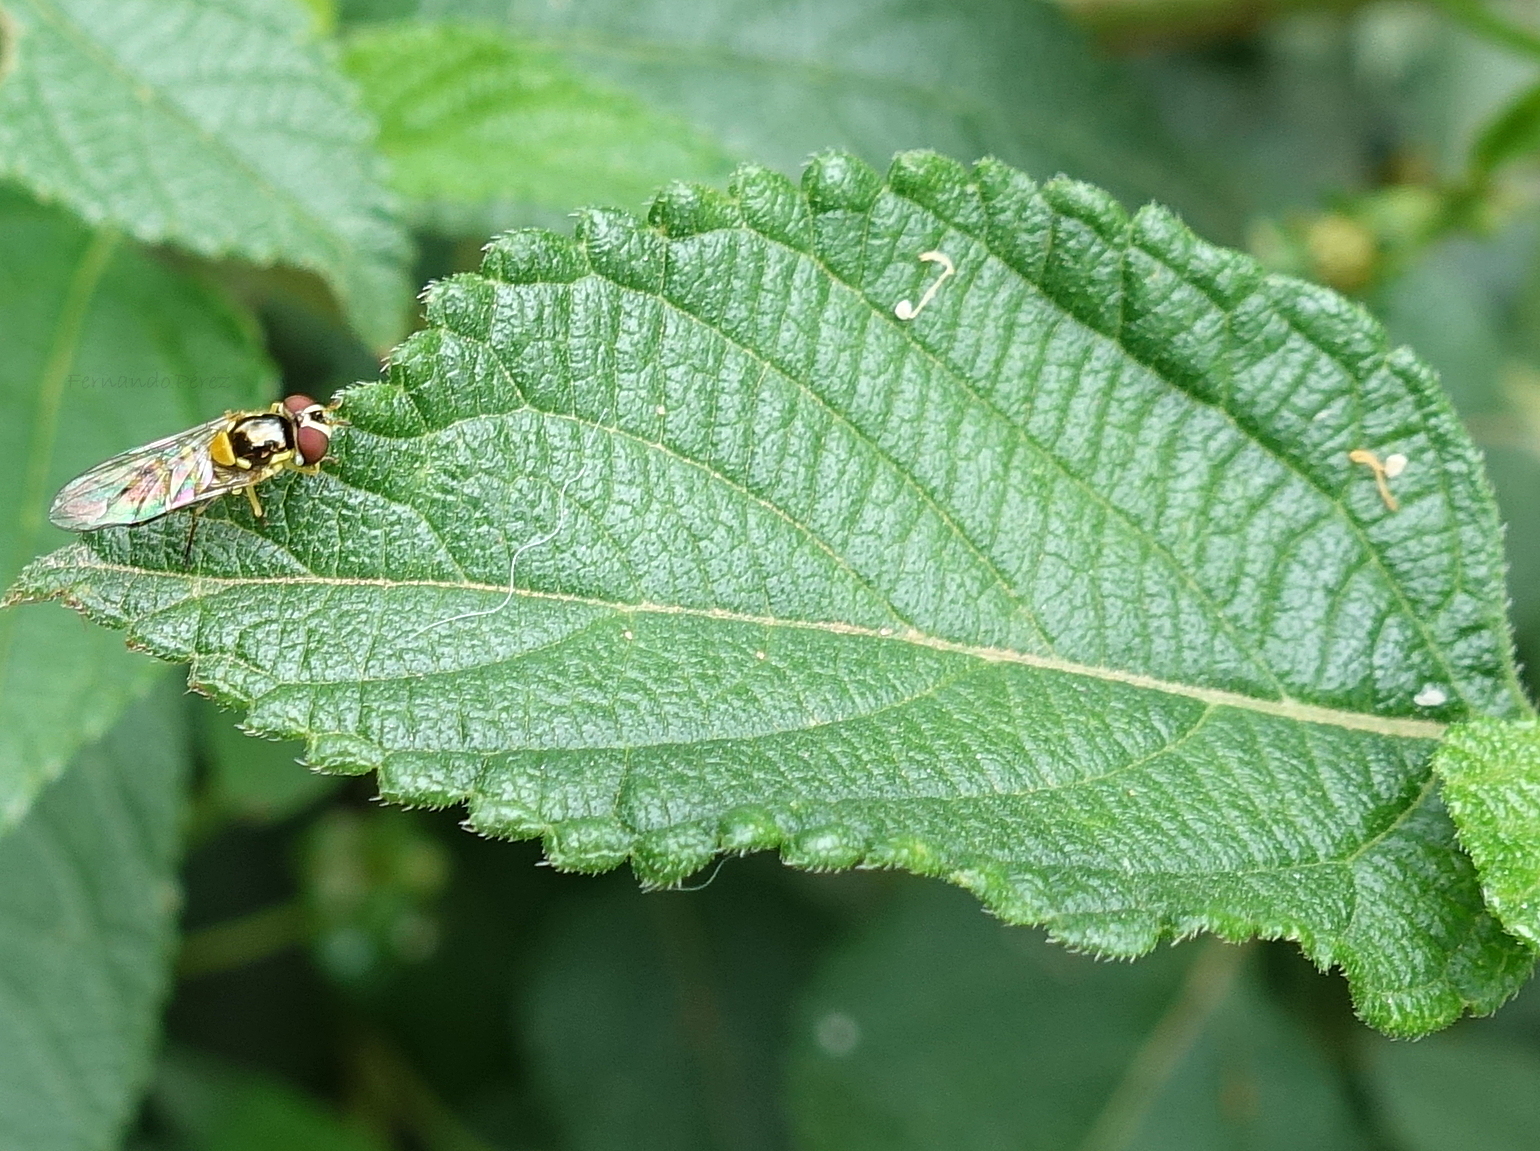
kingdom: Animalia
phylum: Arthropoda
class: Insecta
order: Diptera
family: Syrphidae
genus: Allograpta
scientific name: Allograpta obliqua
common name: Common oblique syrphid
